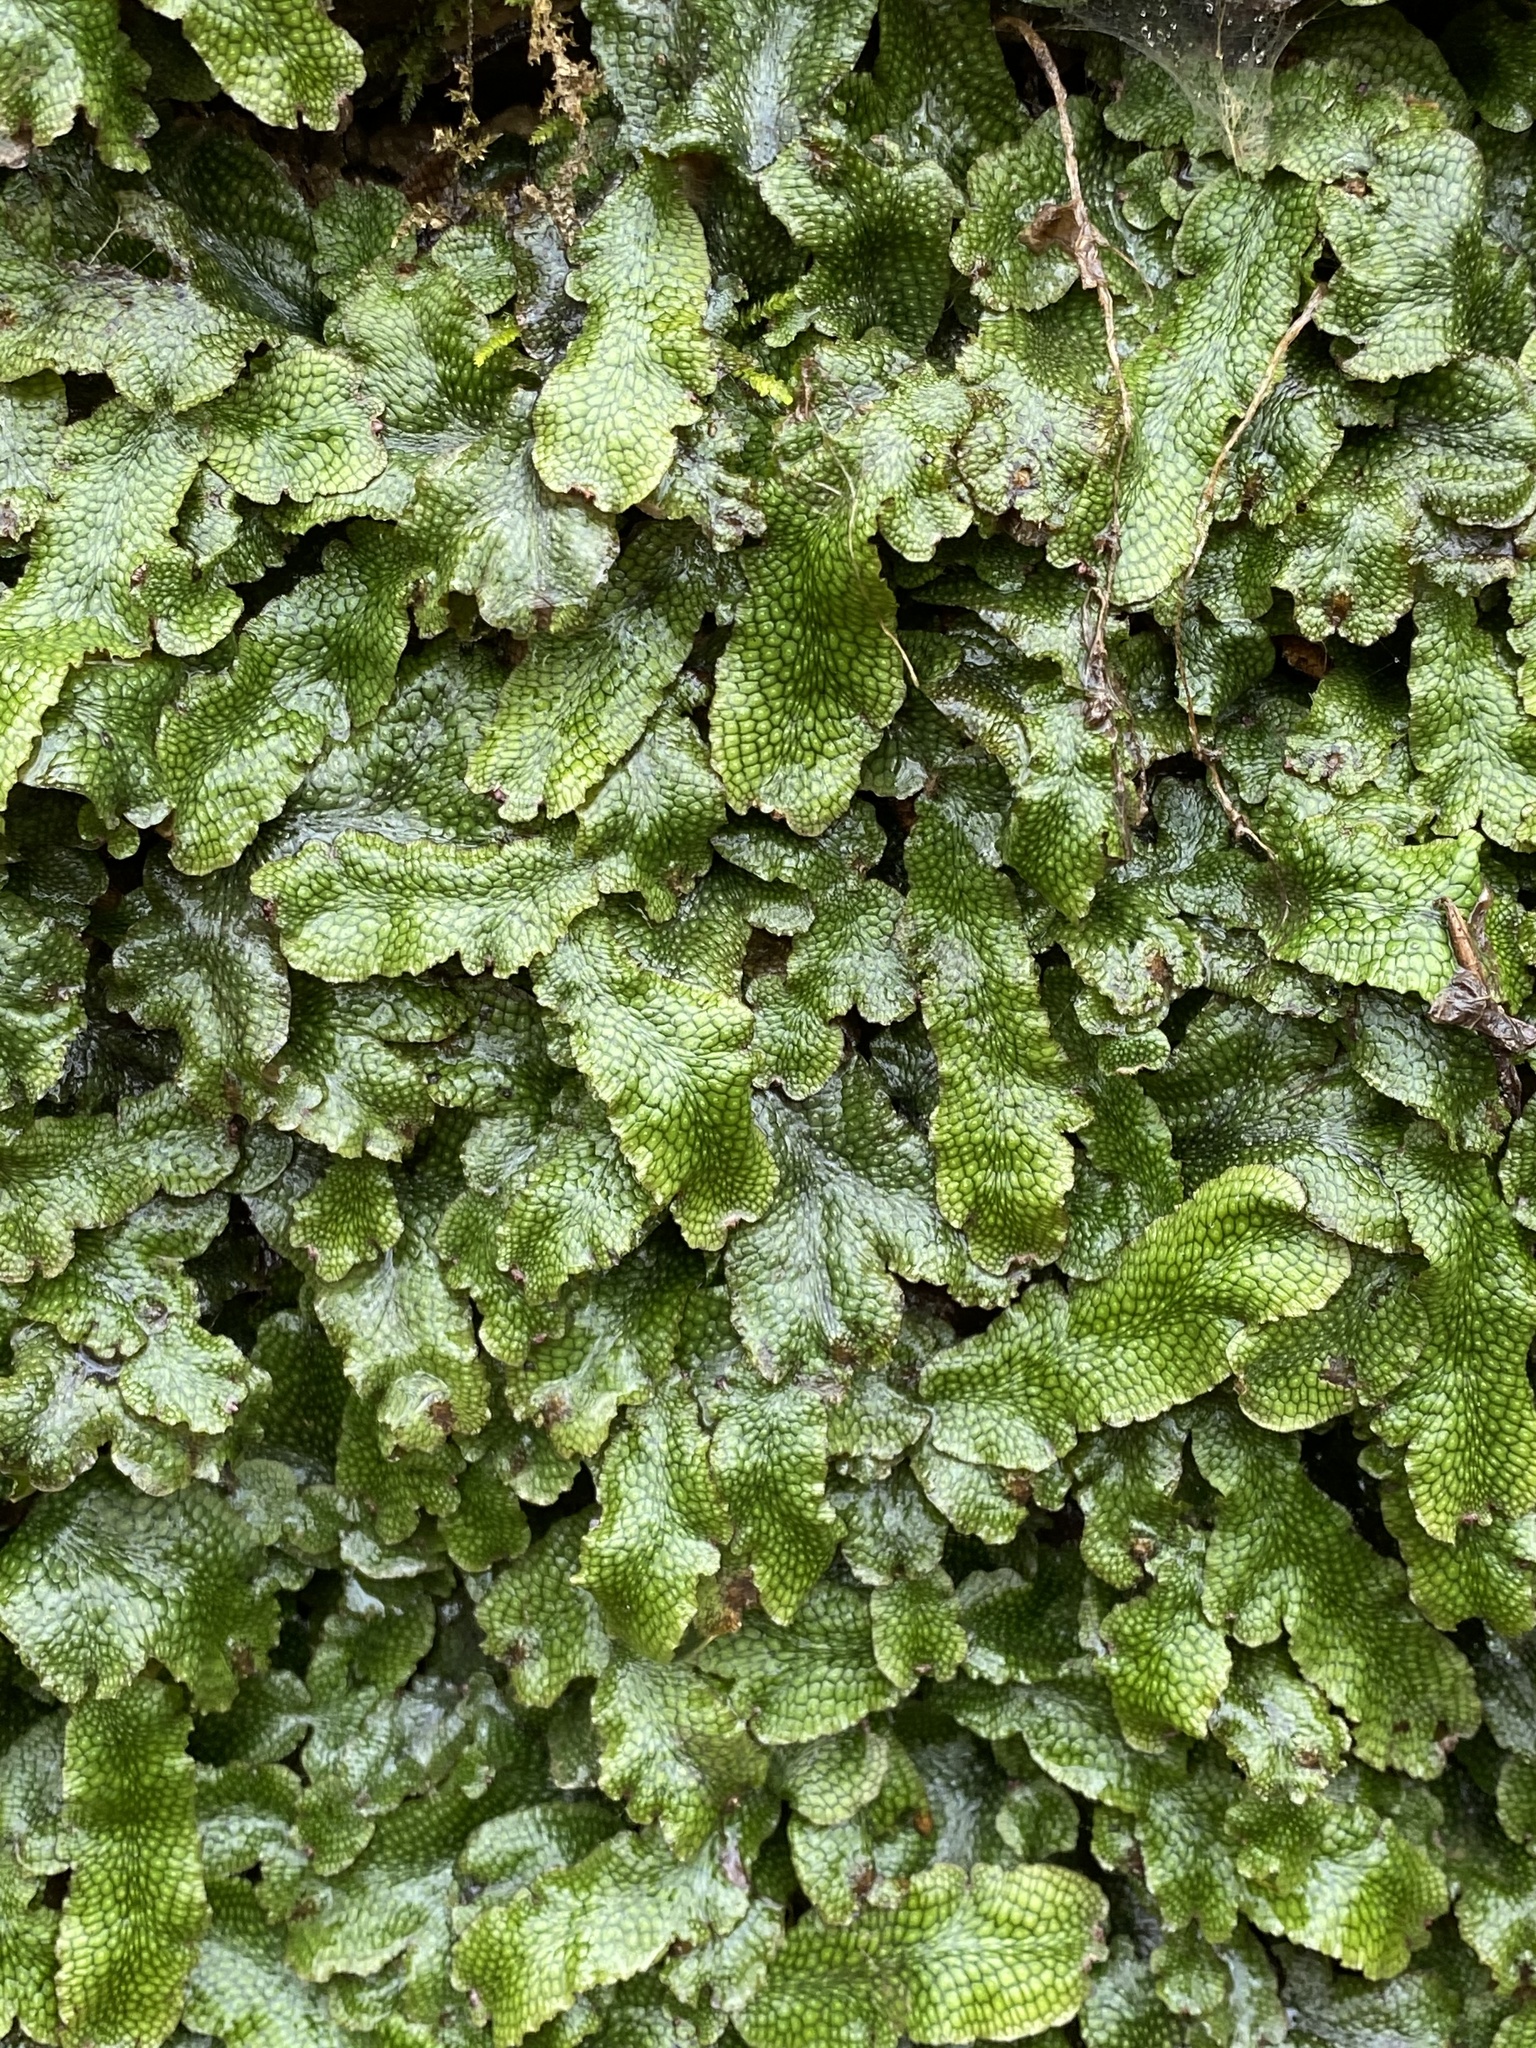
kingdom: Plantae
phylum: Marchantiophyta
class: Marchantiopsida
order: Marchantiales
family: Conocephalaceae
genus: Conocephalum
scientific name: Conocephalum salebrosum
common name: Cat-tongue liverwort
